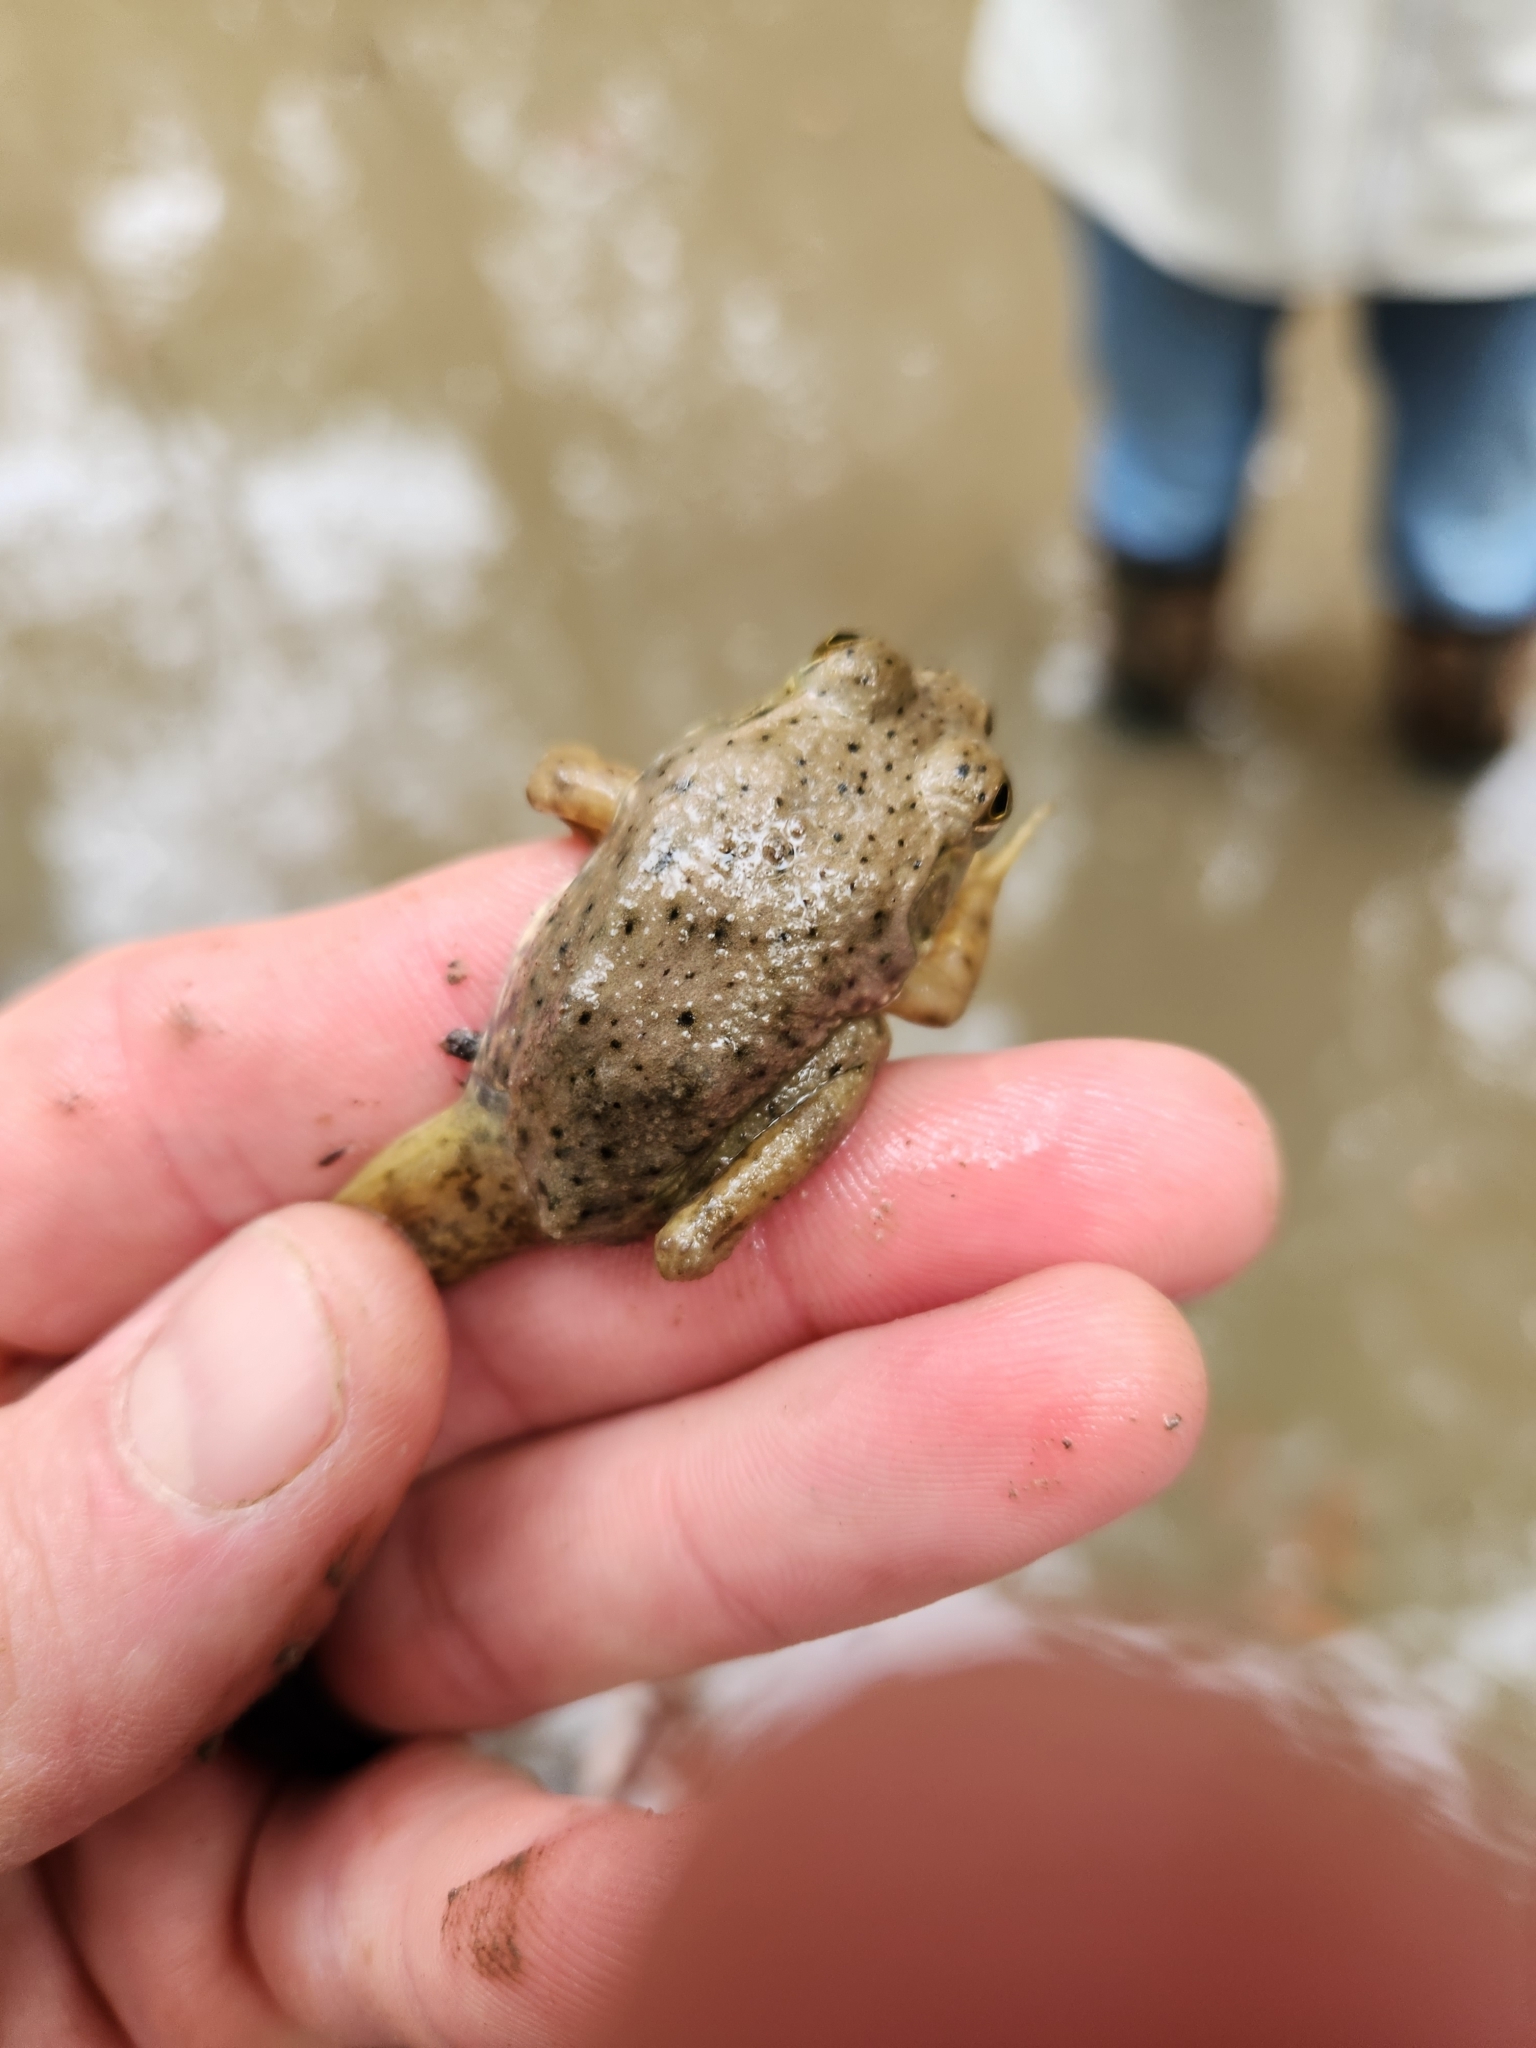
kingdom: Animalia
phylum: Chordata
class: Amphibia
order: Anura
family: Ranidae
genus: Lithobates
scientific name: Lithobates catesbeianus
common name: American bullfrog
